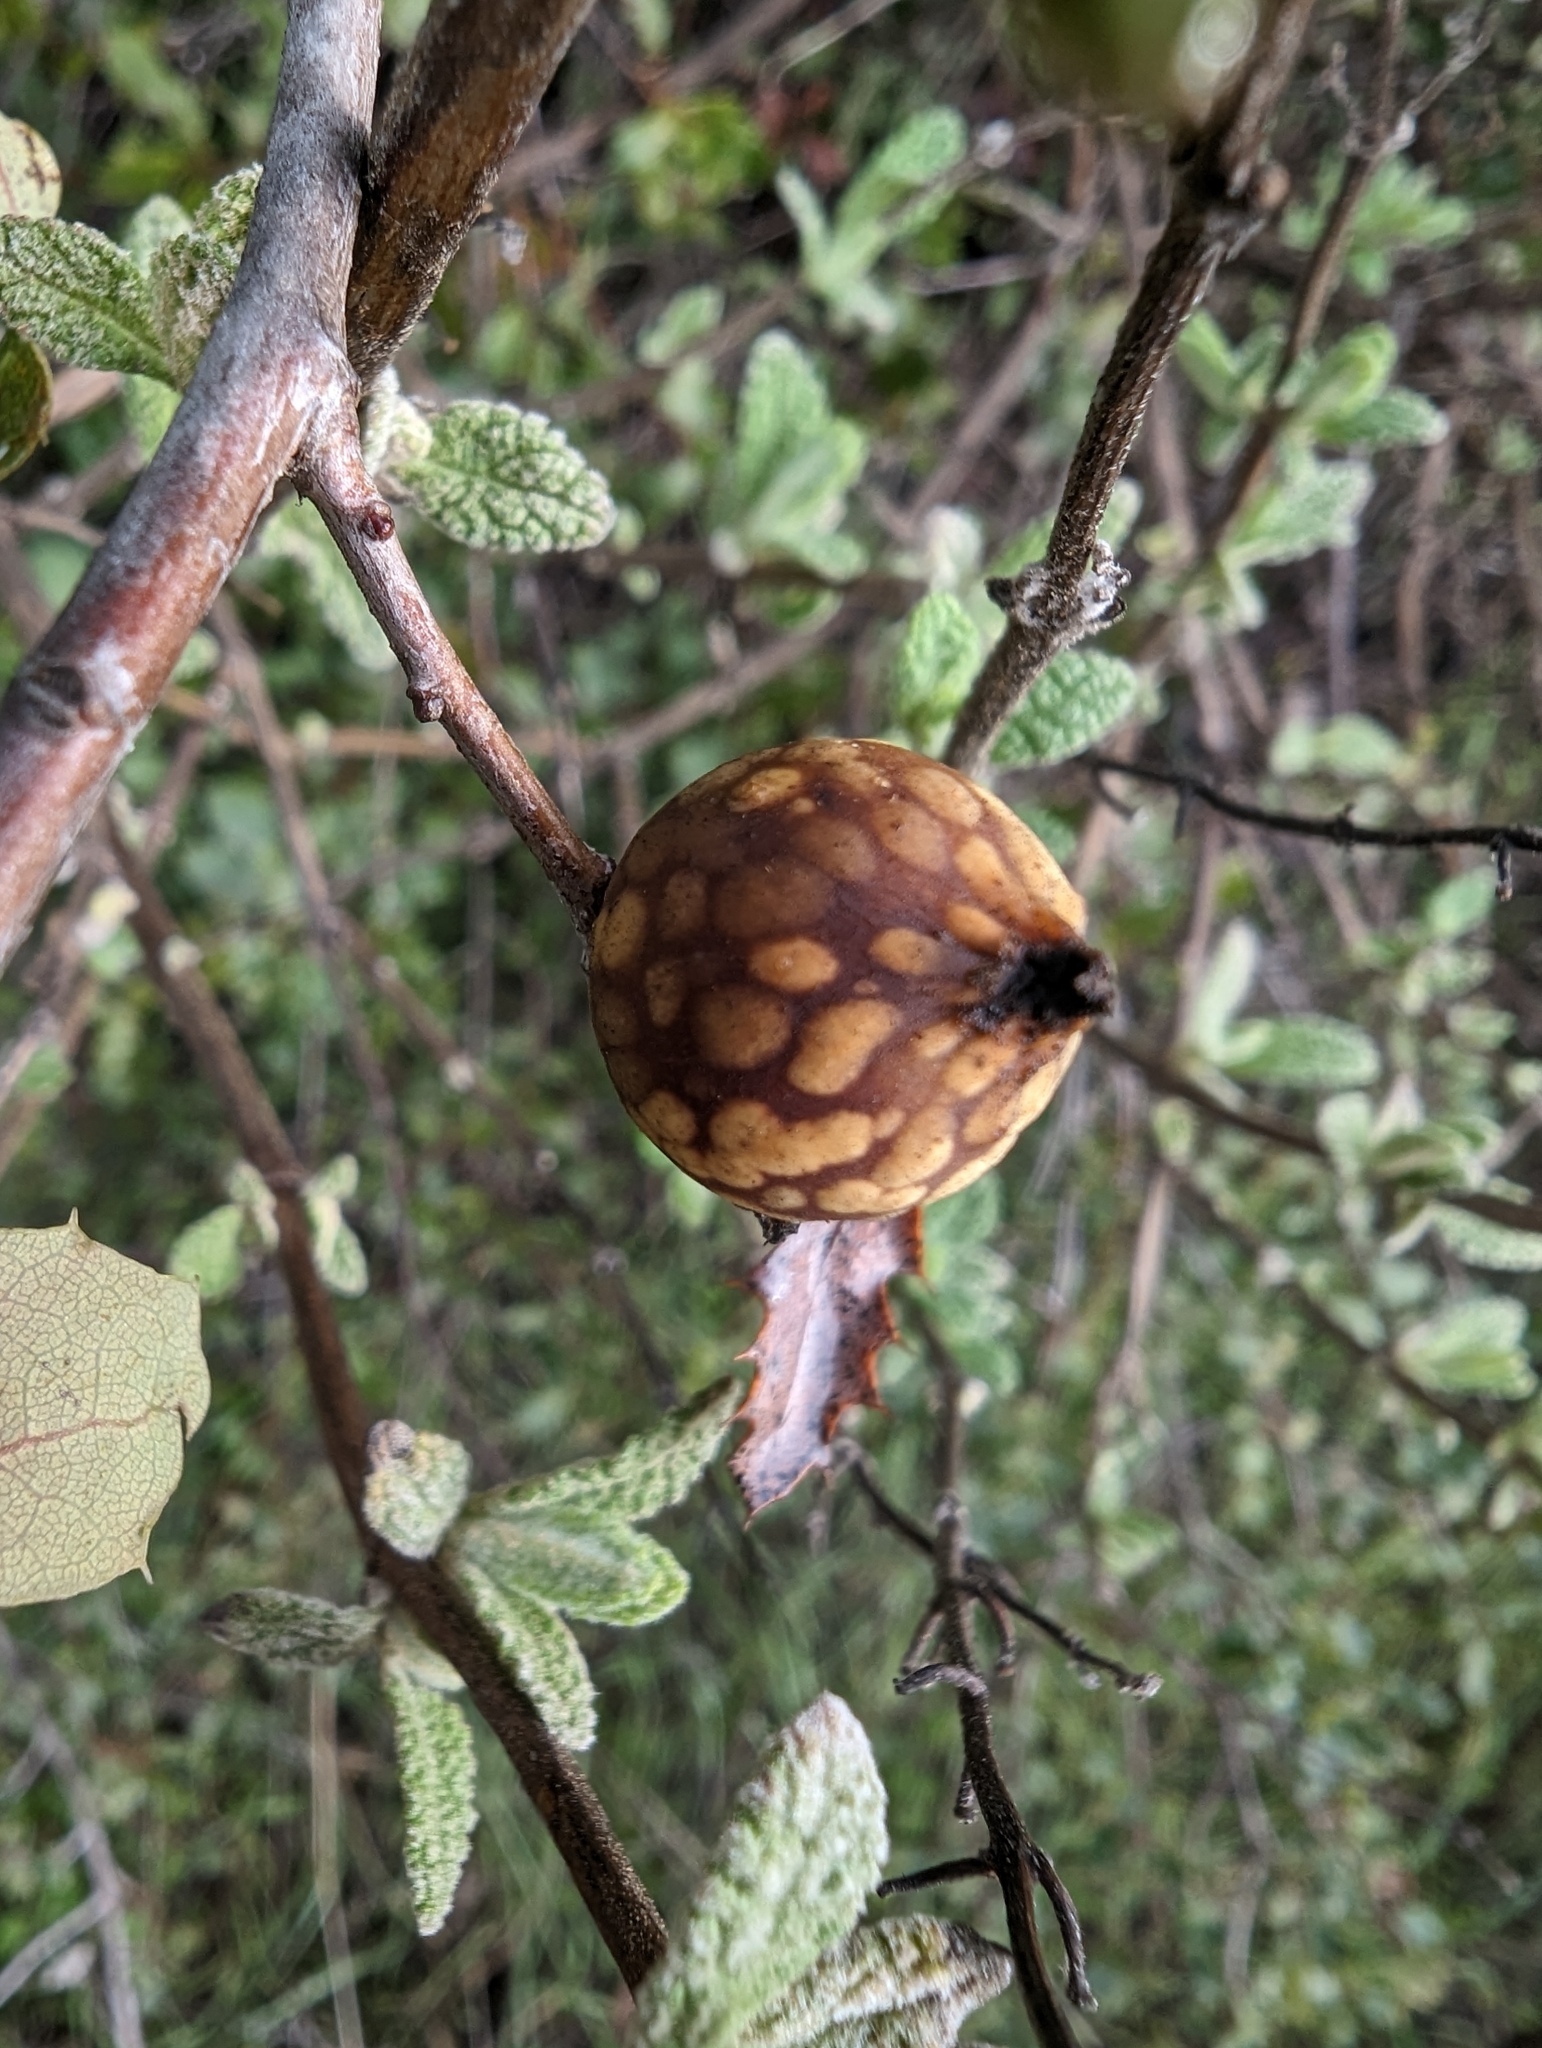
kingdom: Animalia
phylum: Arthropoda
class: Insecta
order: Hymenoptera
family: Cynipidae
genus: Burnettweldia
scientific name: Burnettweldia
